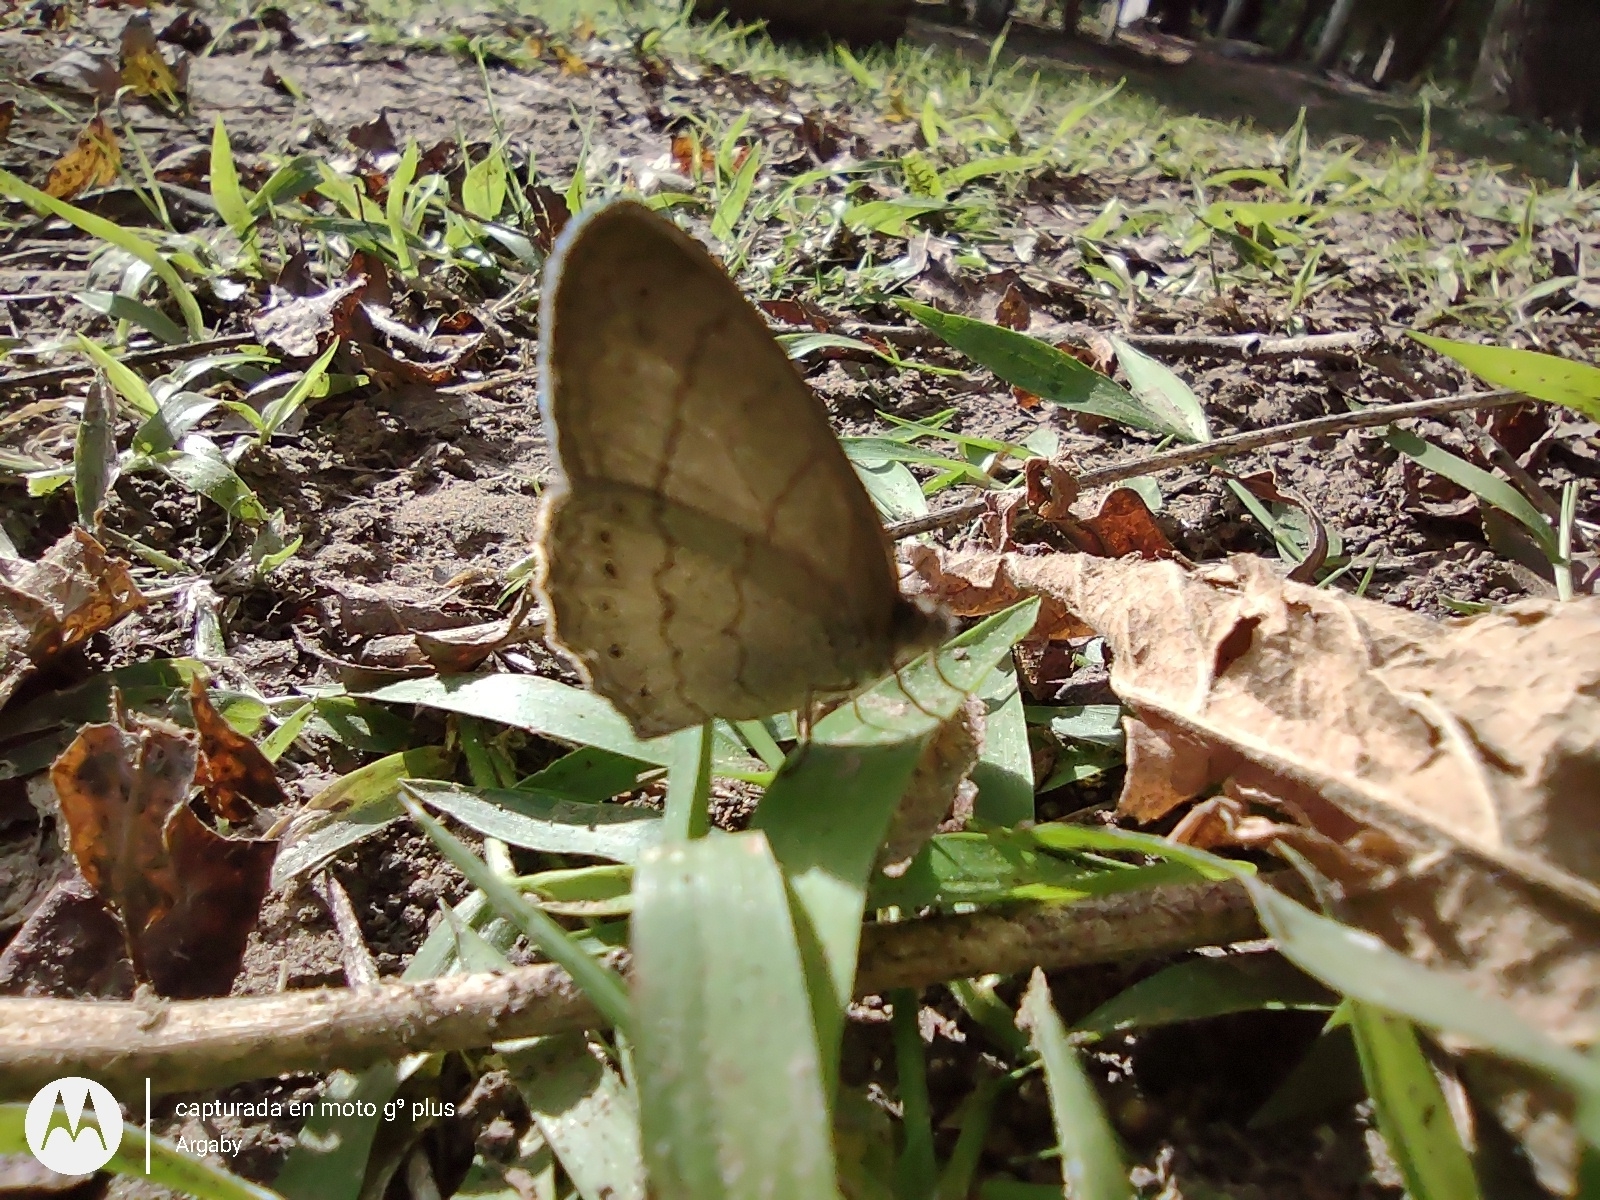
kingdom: Animalia
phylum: Arthropoda
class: Insecta
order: Lepidoptera
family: Nymphalidae
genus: Paryphthimoides
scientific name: Paryphthimoides poltys
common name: Poltys satyr
